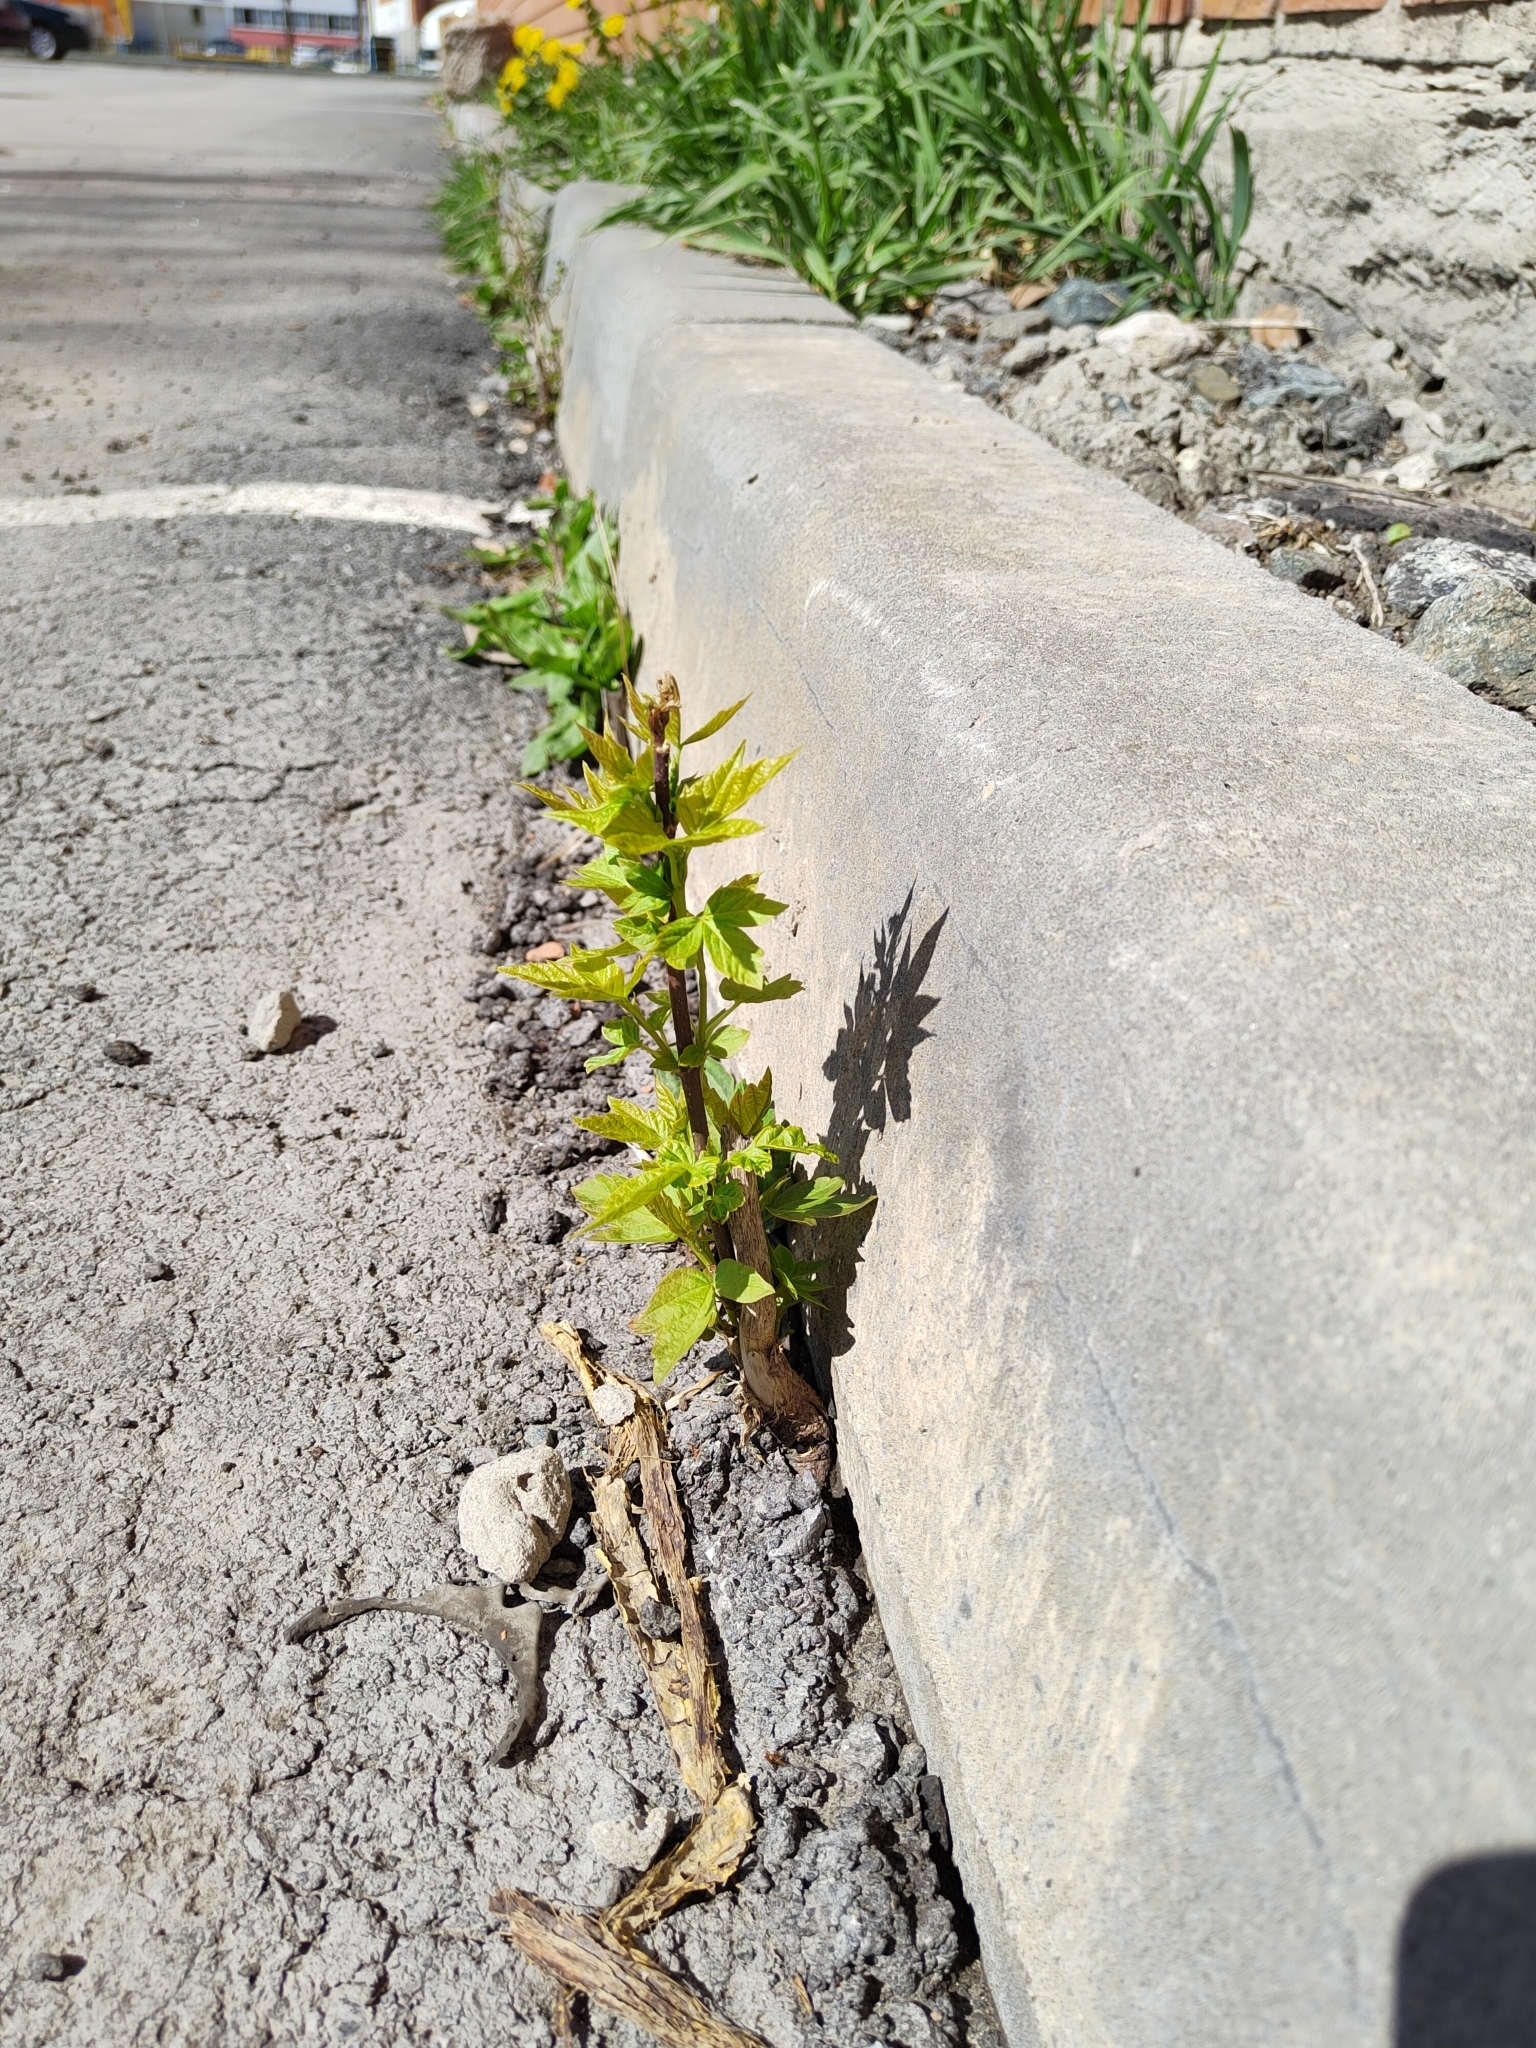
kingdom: Plantae
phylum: Tracheophyta
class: Magnoliopsida
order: Sapindales
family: Sapindaceae
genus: Acer
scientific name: Acer negundo
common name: Ashleaf maple
